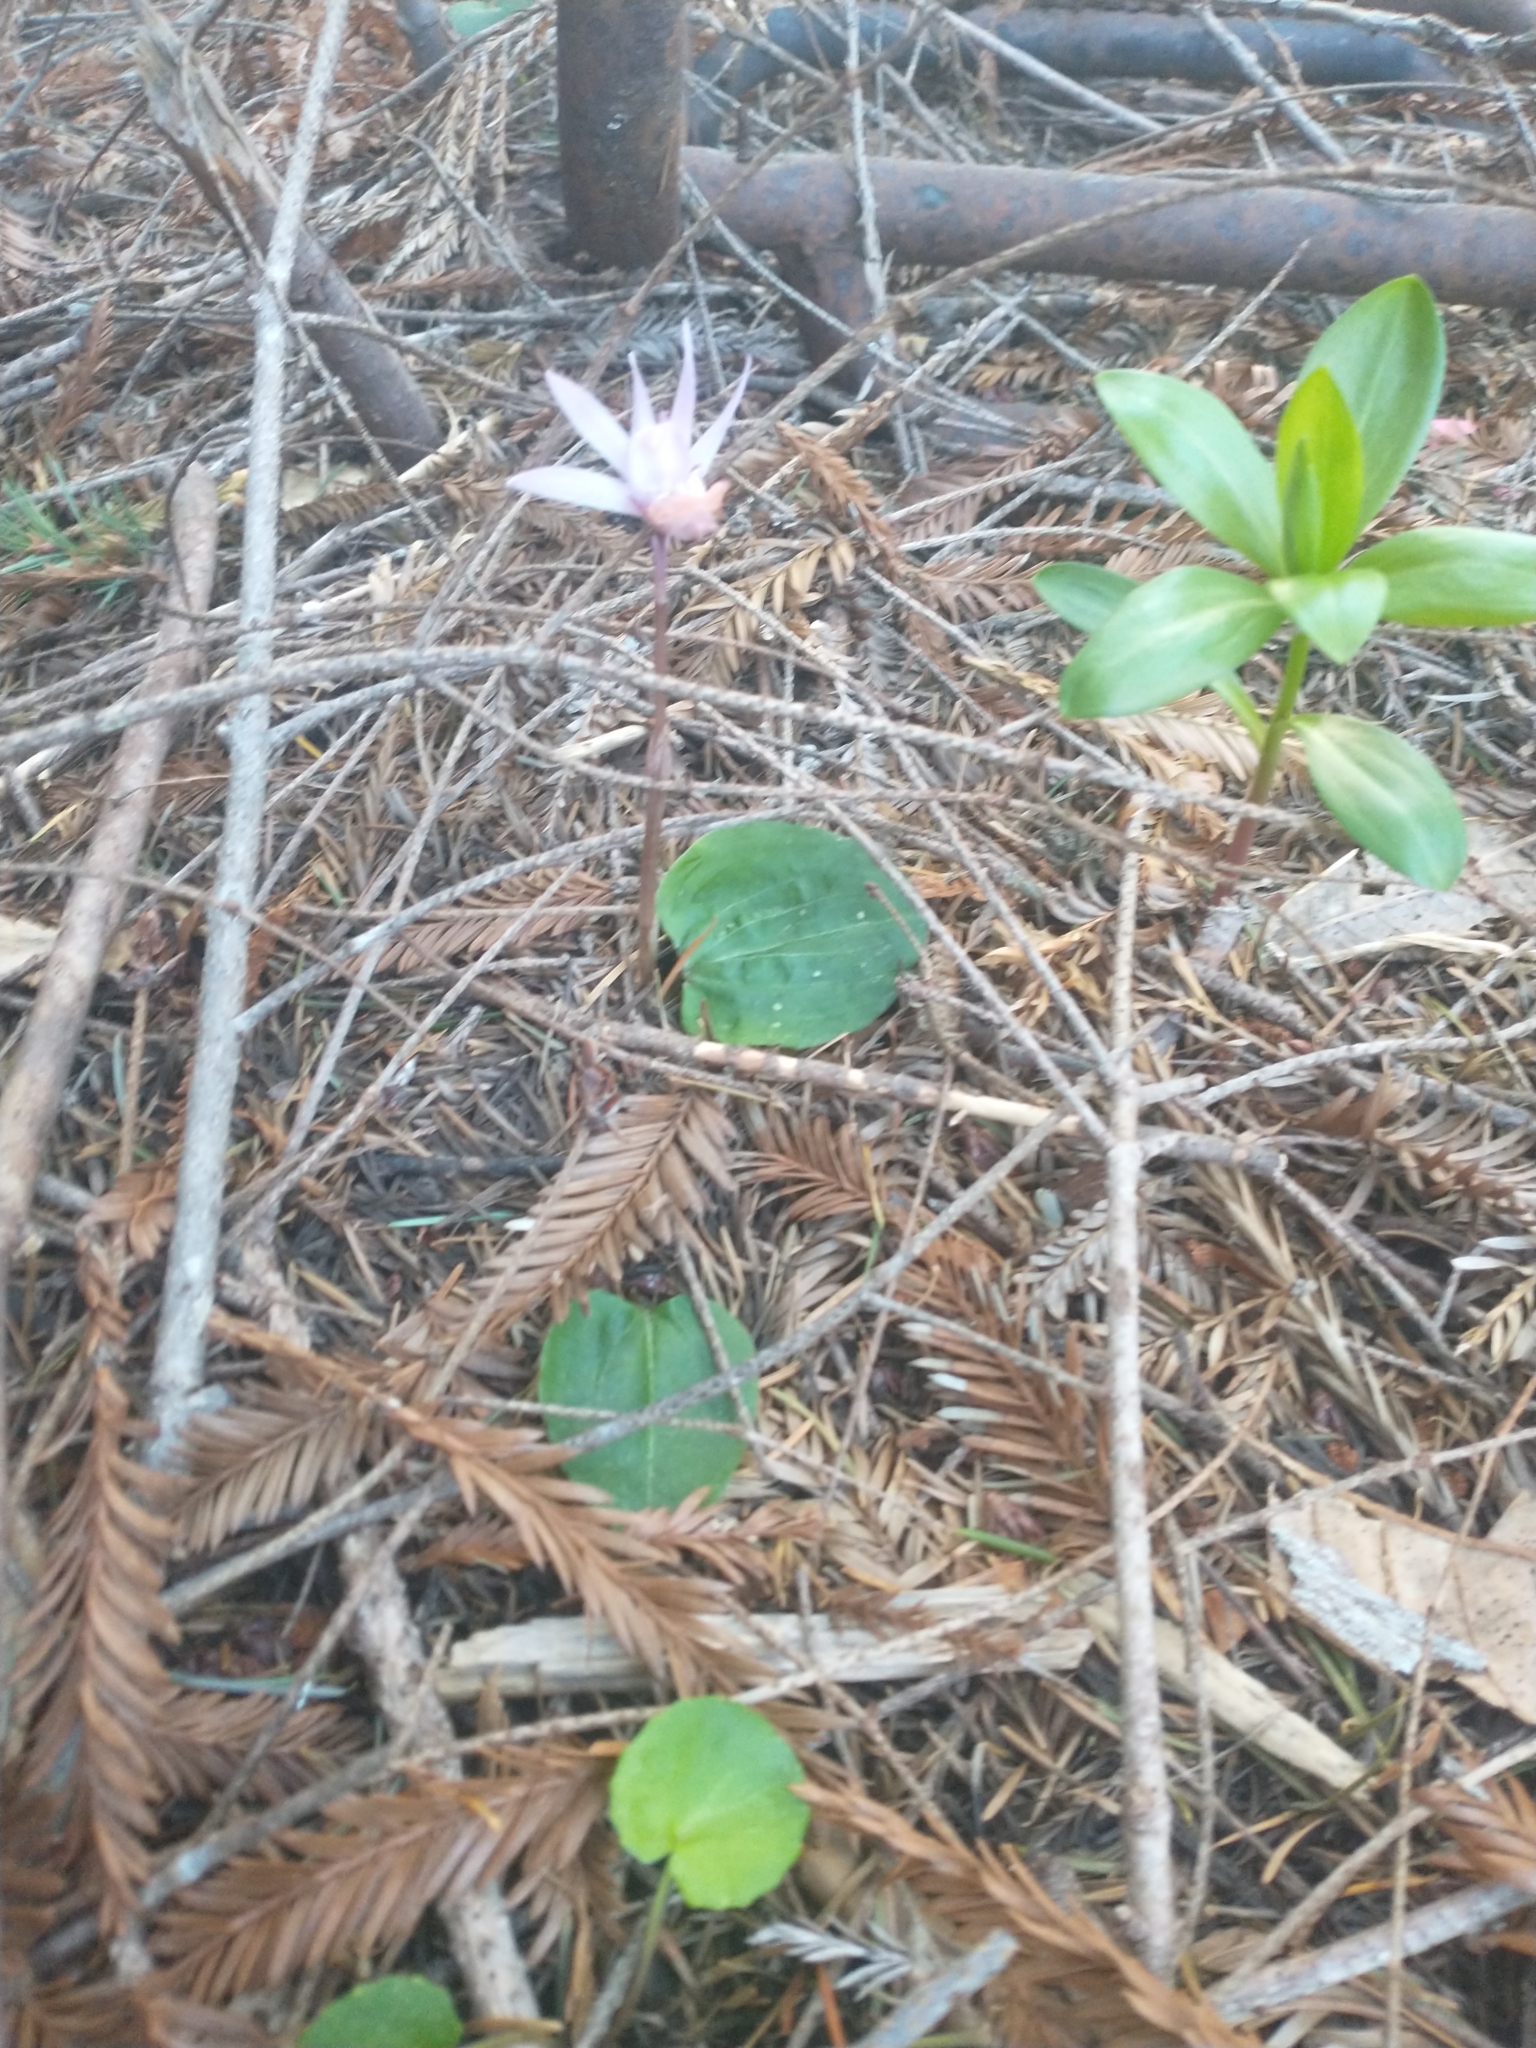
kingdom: Plantae
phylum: Tracheophyta
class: Liliopsida
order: Asparagales
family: Orchidaceae
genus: Calypso
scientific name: Calypso bulbosa
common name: Calypso
